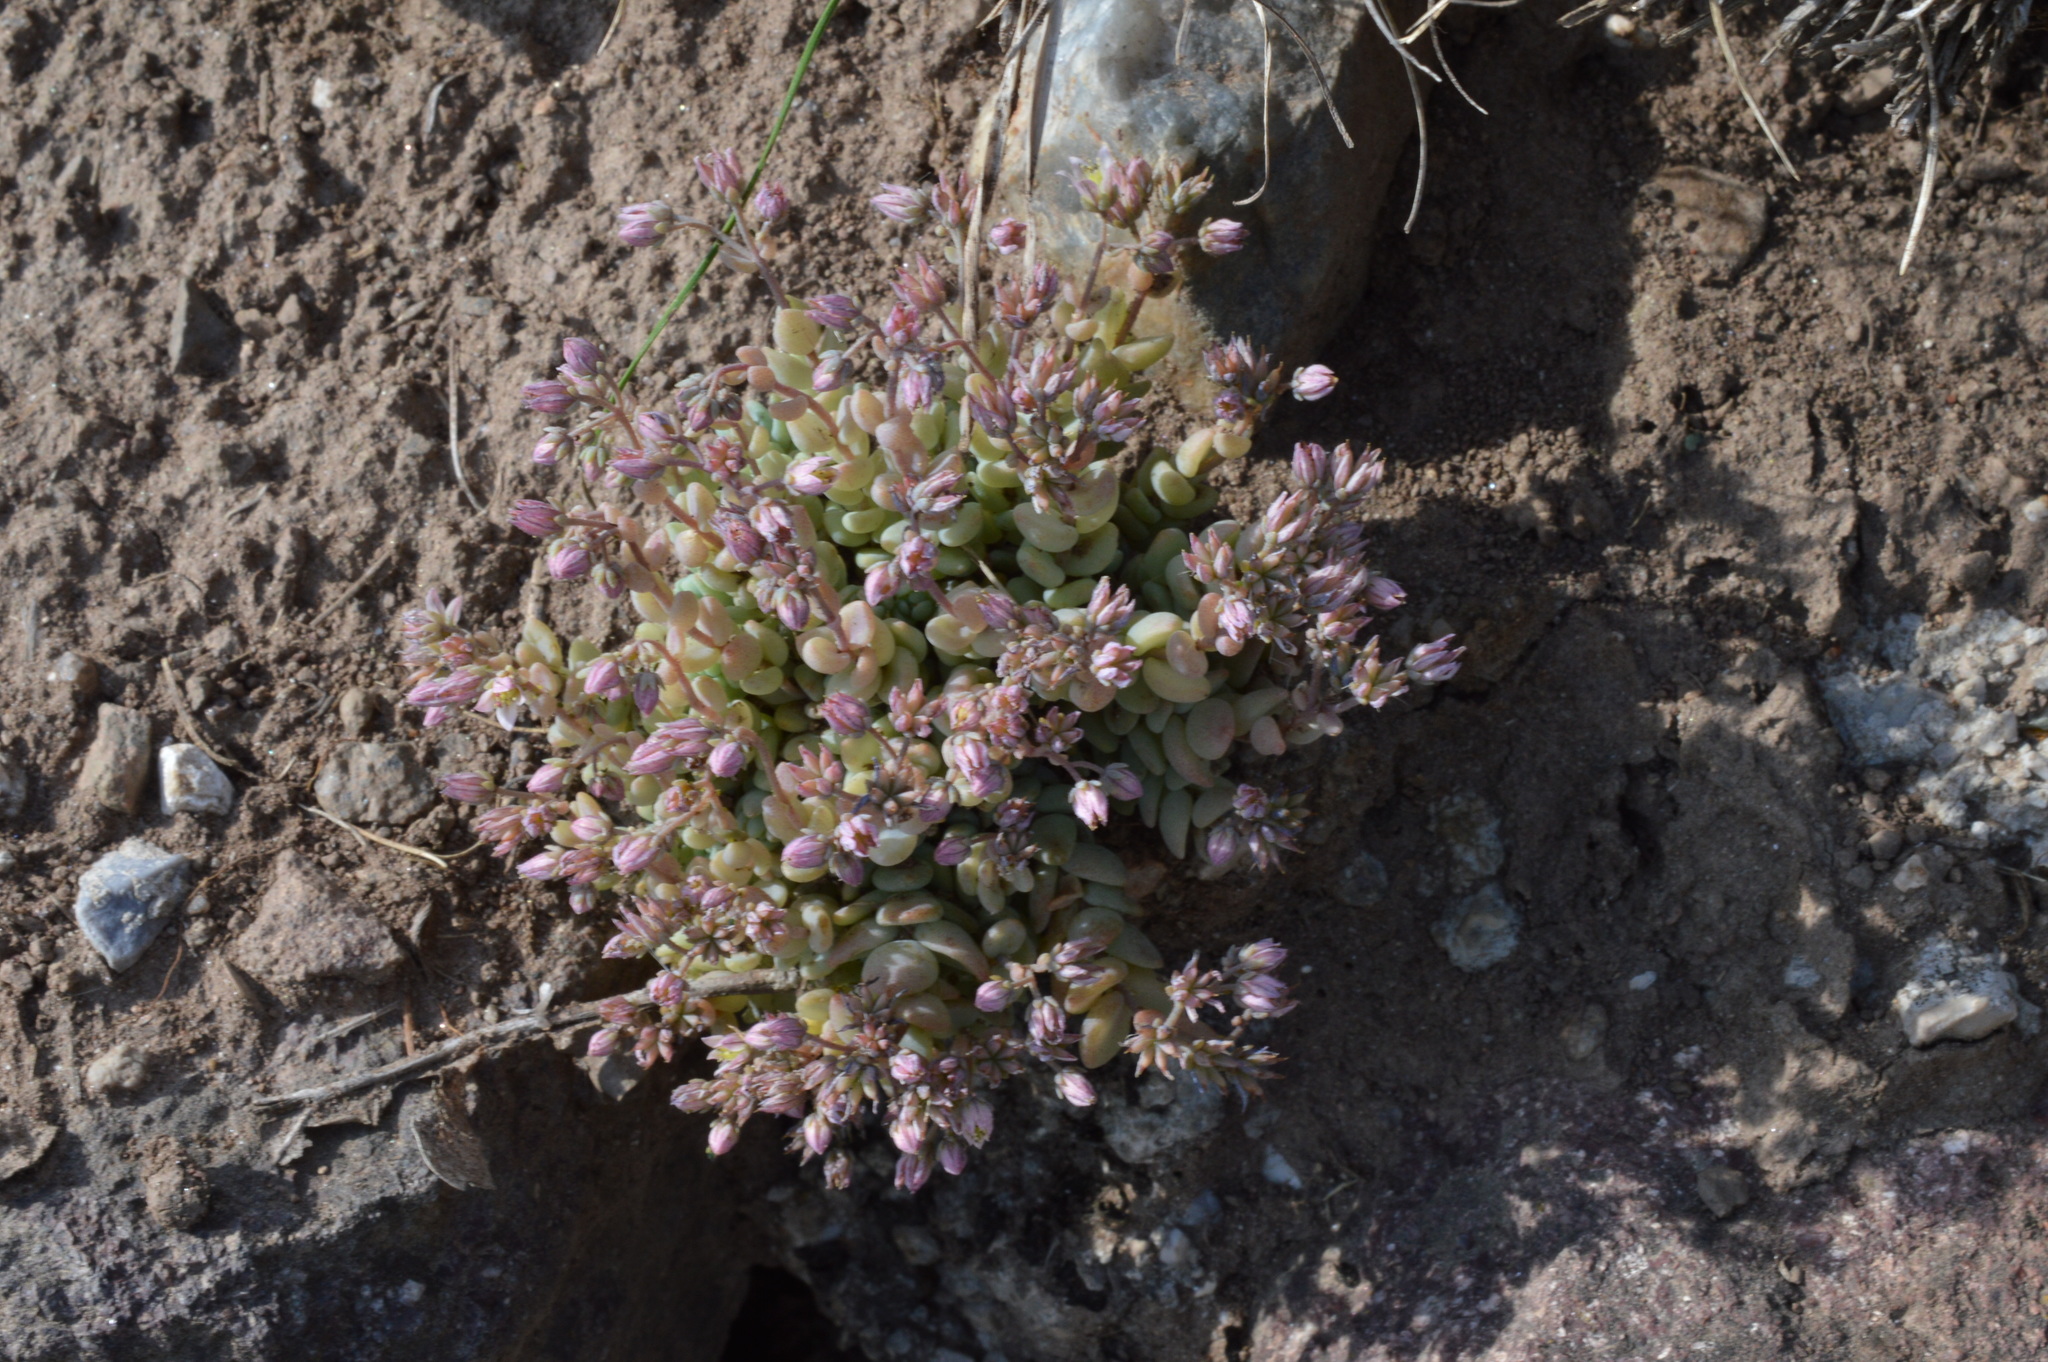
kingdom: Plantae
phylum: Tracheophyta
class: Magnoliopsida
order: Saxifragales
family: Crassulaceae
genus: Sedum
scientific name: Sedum dasyphyllum
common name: Thick-leaf stonecrop
